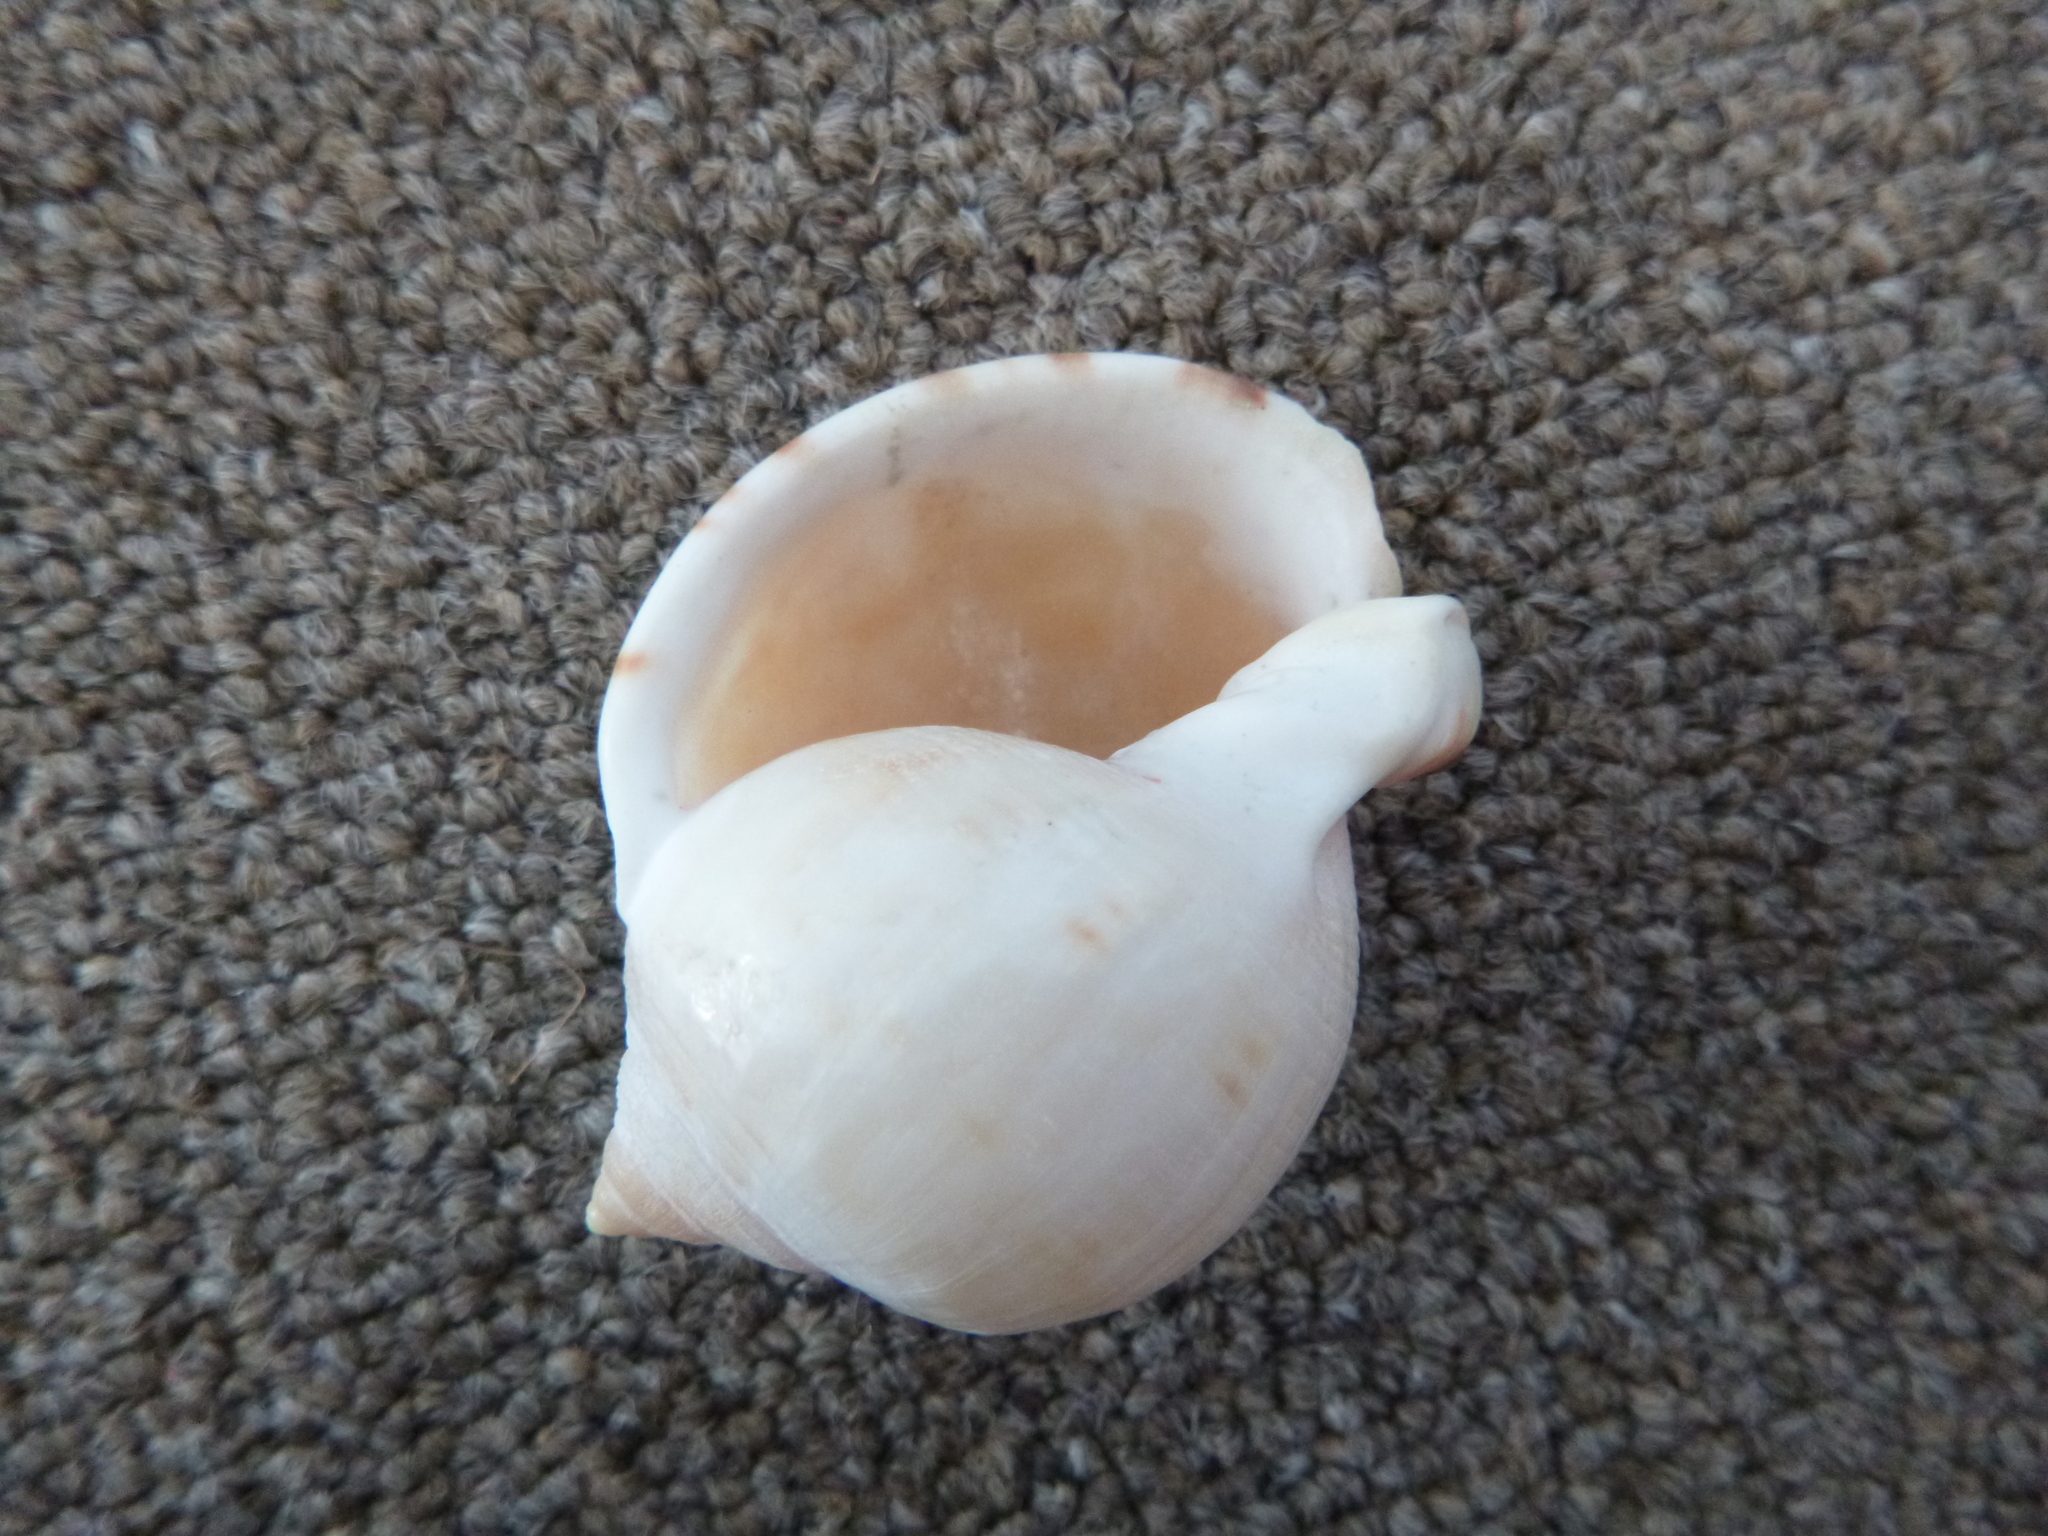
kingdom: Animalia
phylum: Mollusca
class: Gastropoda
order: Littorinimorpha
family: Cassidae
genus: Semicassis
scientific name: Semicassis pyrum
